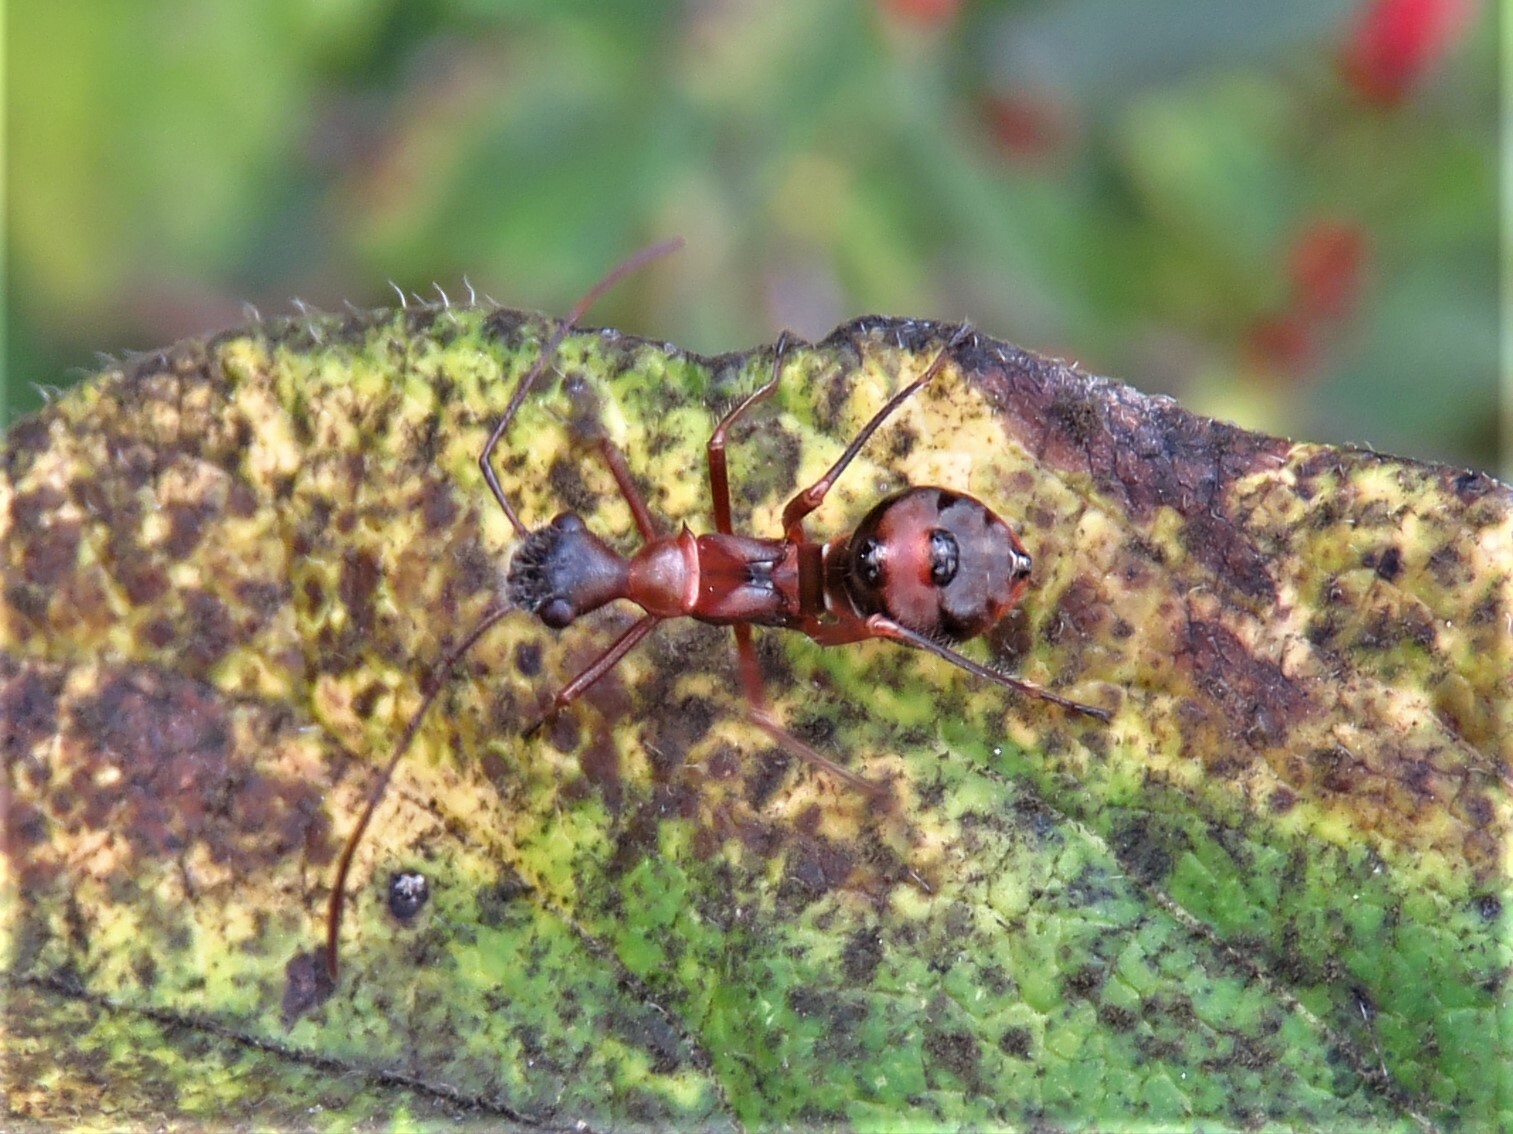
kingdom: Animalia
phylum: Arthropoda
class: Insecta
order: Hemiptera
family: Alydidae
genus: Hyalymenus
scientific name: Hyalymenus tarsatus
